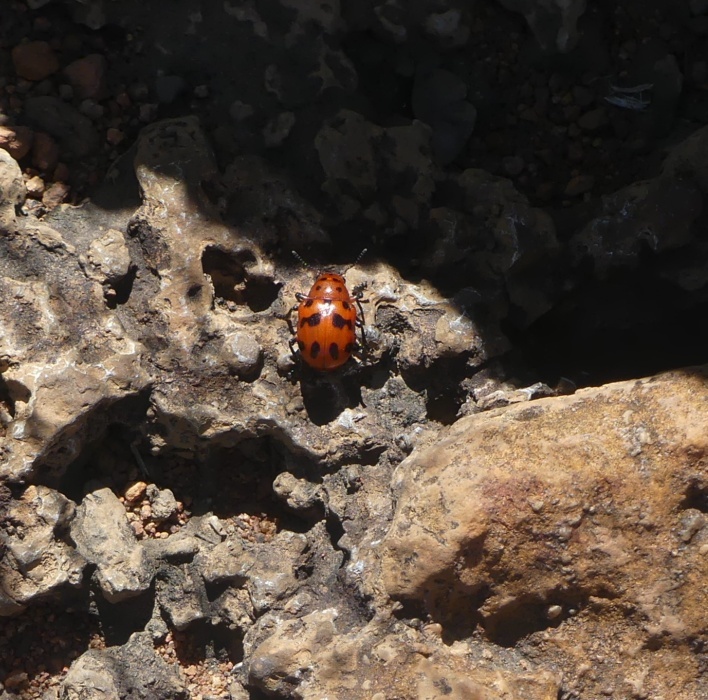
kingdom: Animalia
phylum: Arthropoda
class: Insecta
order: Coleoptera
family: Chrysomelidae
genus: Euryope
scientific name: Euryope
